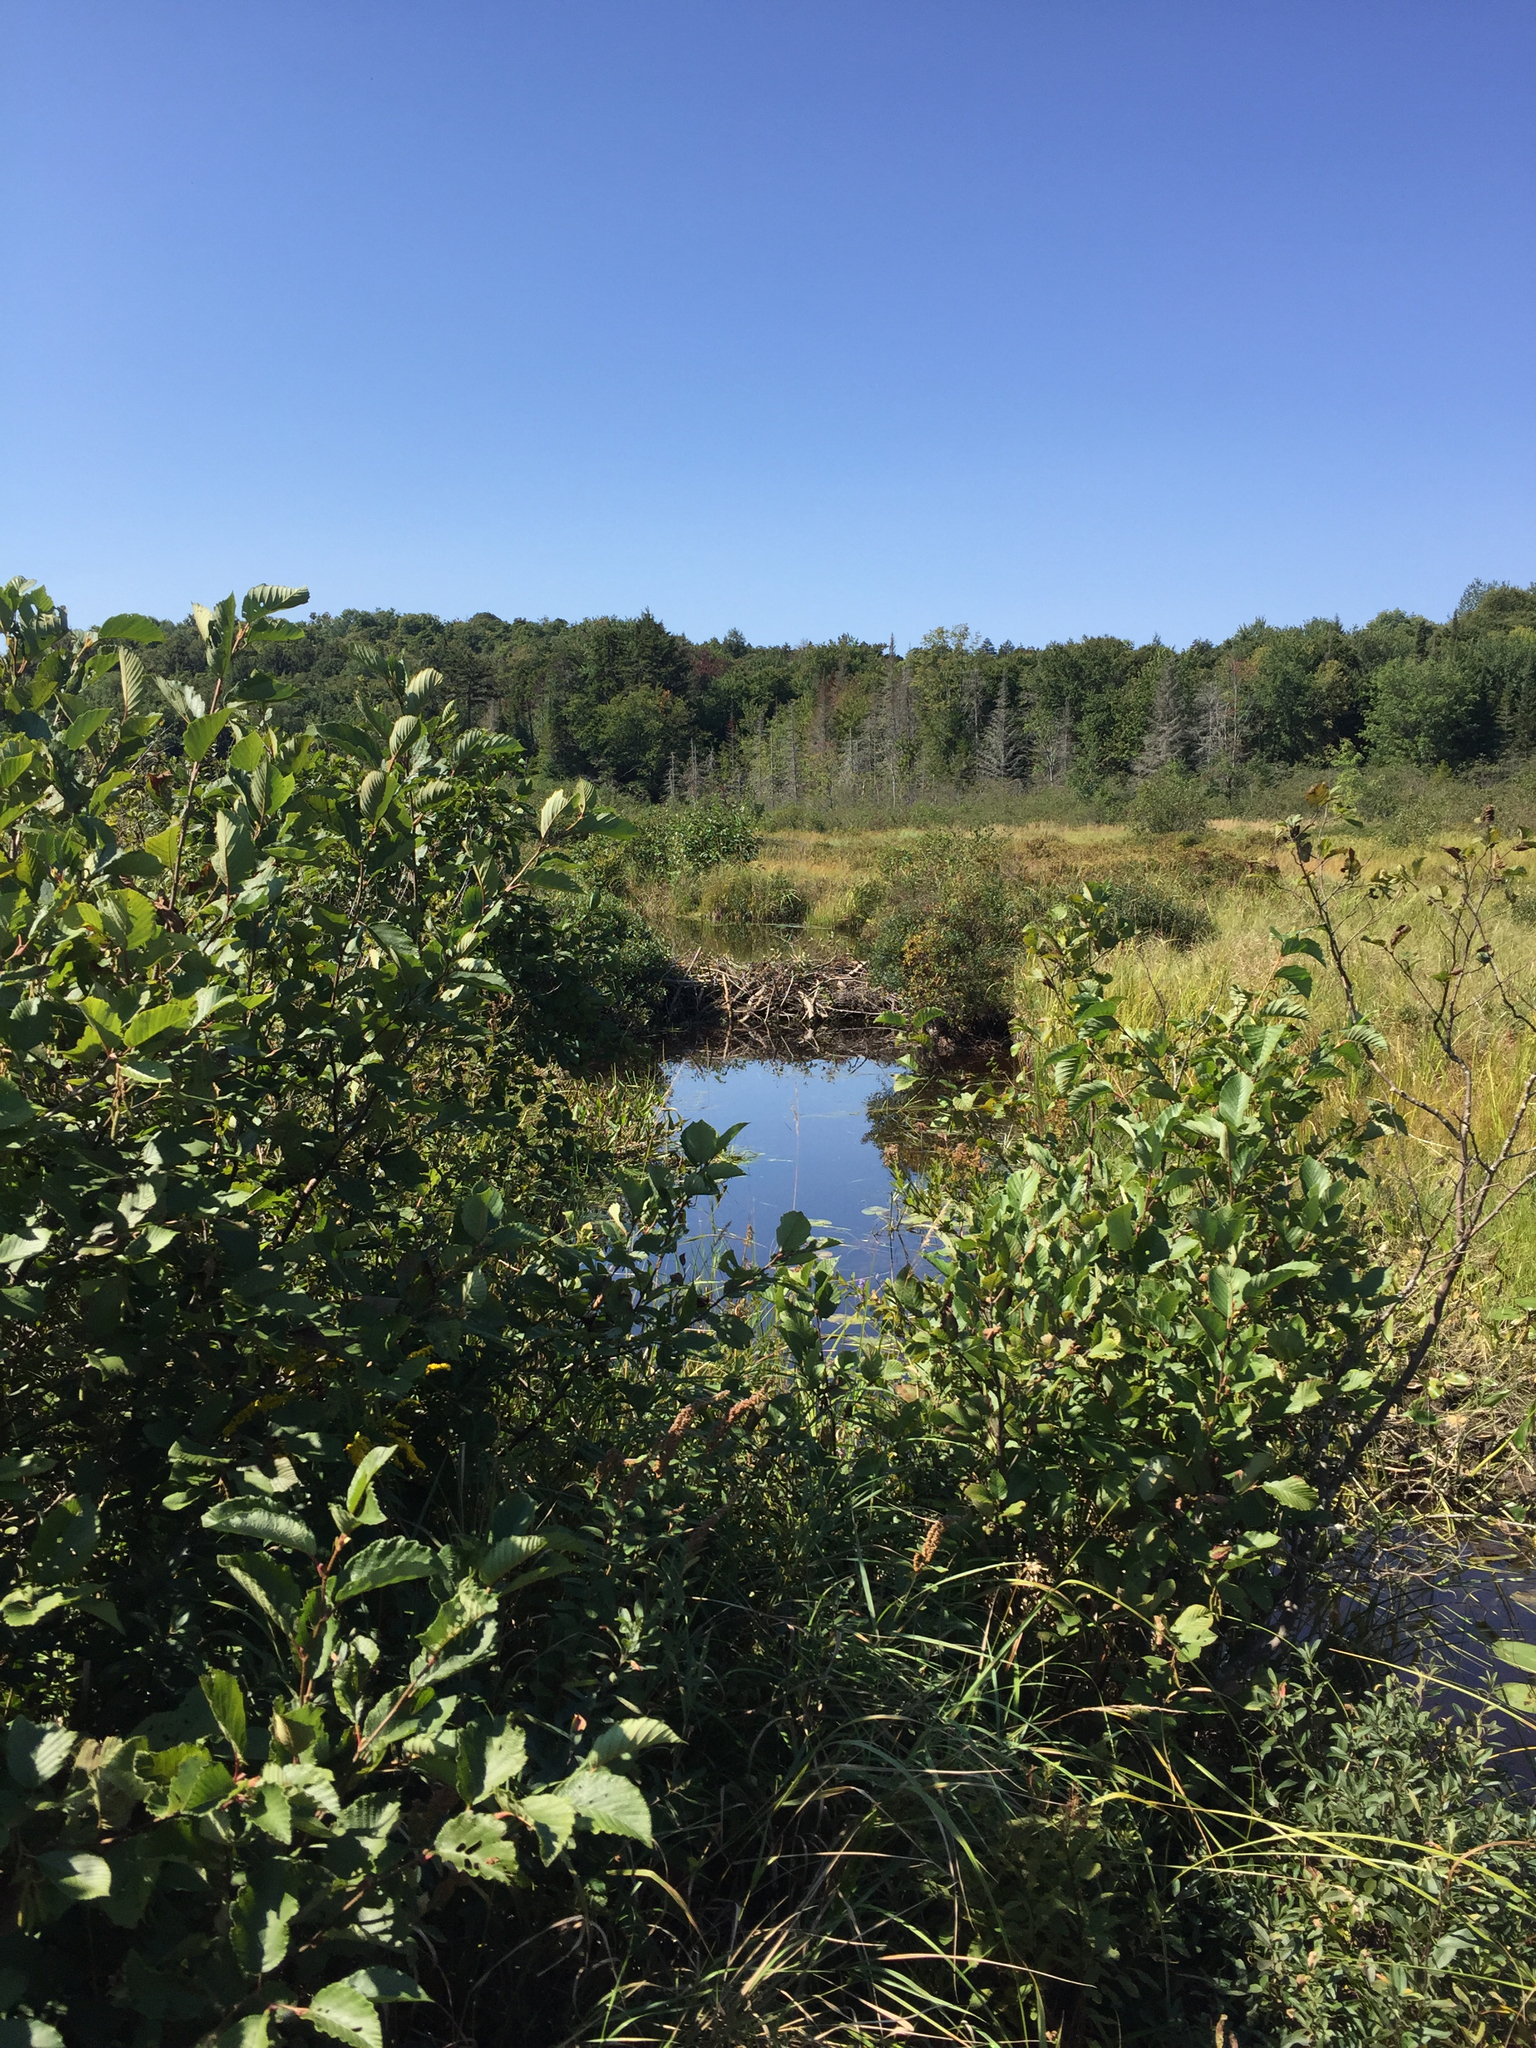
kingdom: Animalia
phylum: Chordata
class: Mammalia
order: Rodentia
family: Castoridae
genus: Castor
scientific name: Castor canadensis
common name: American beaver
